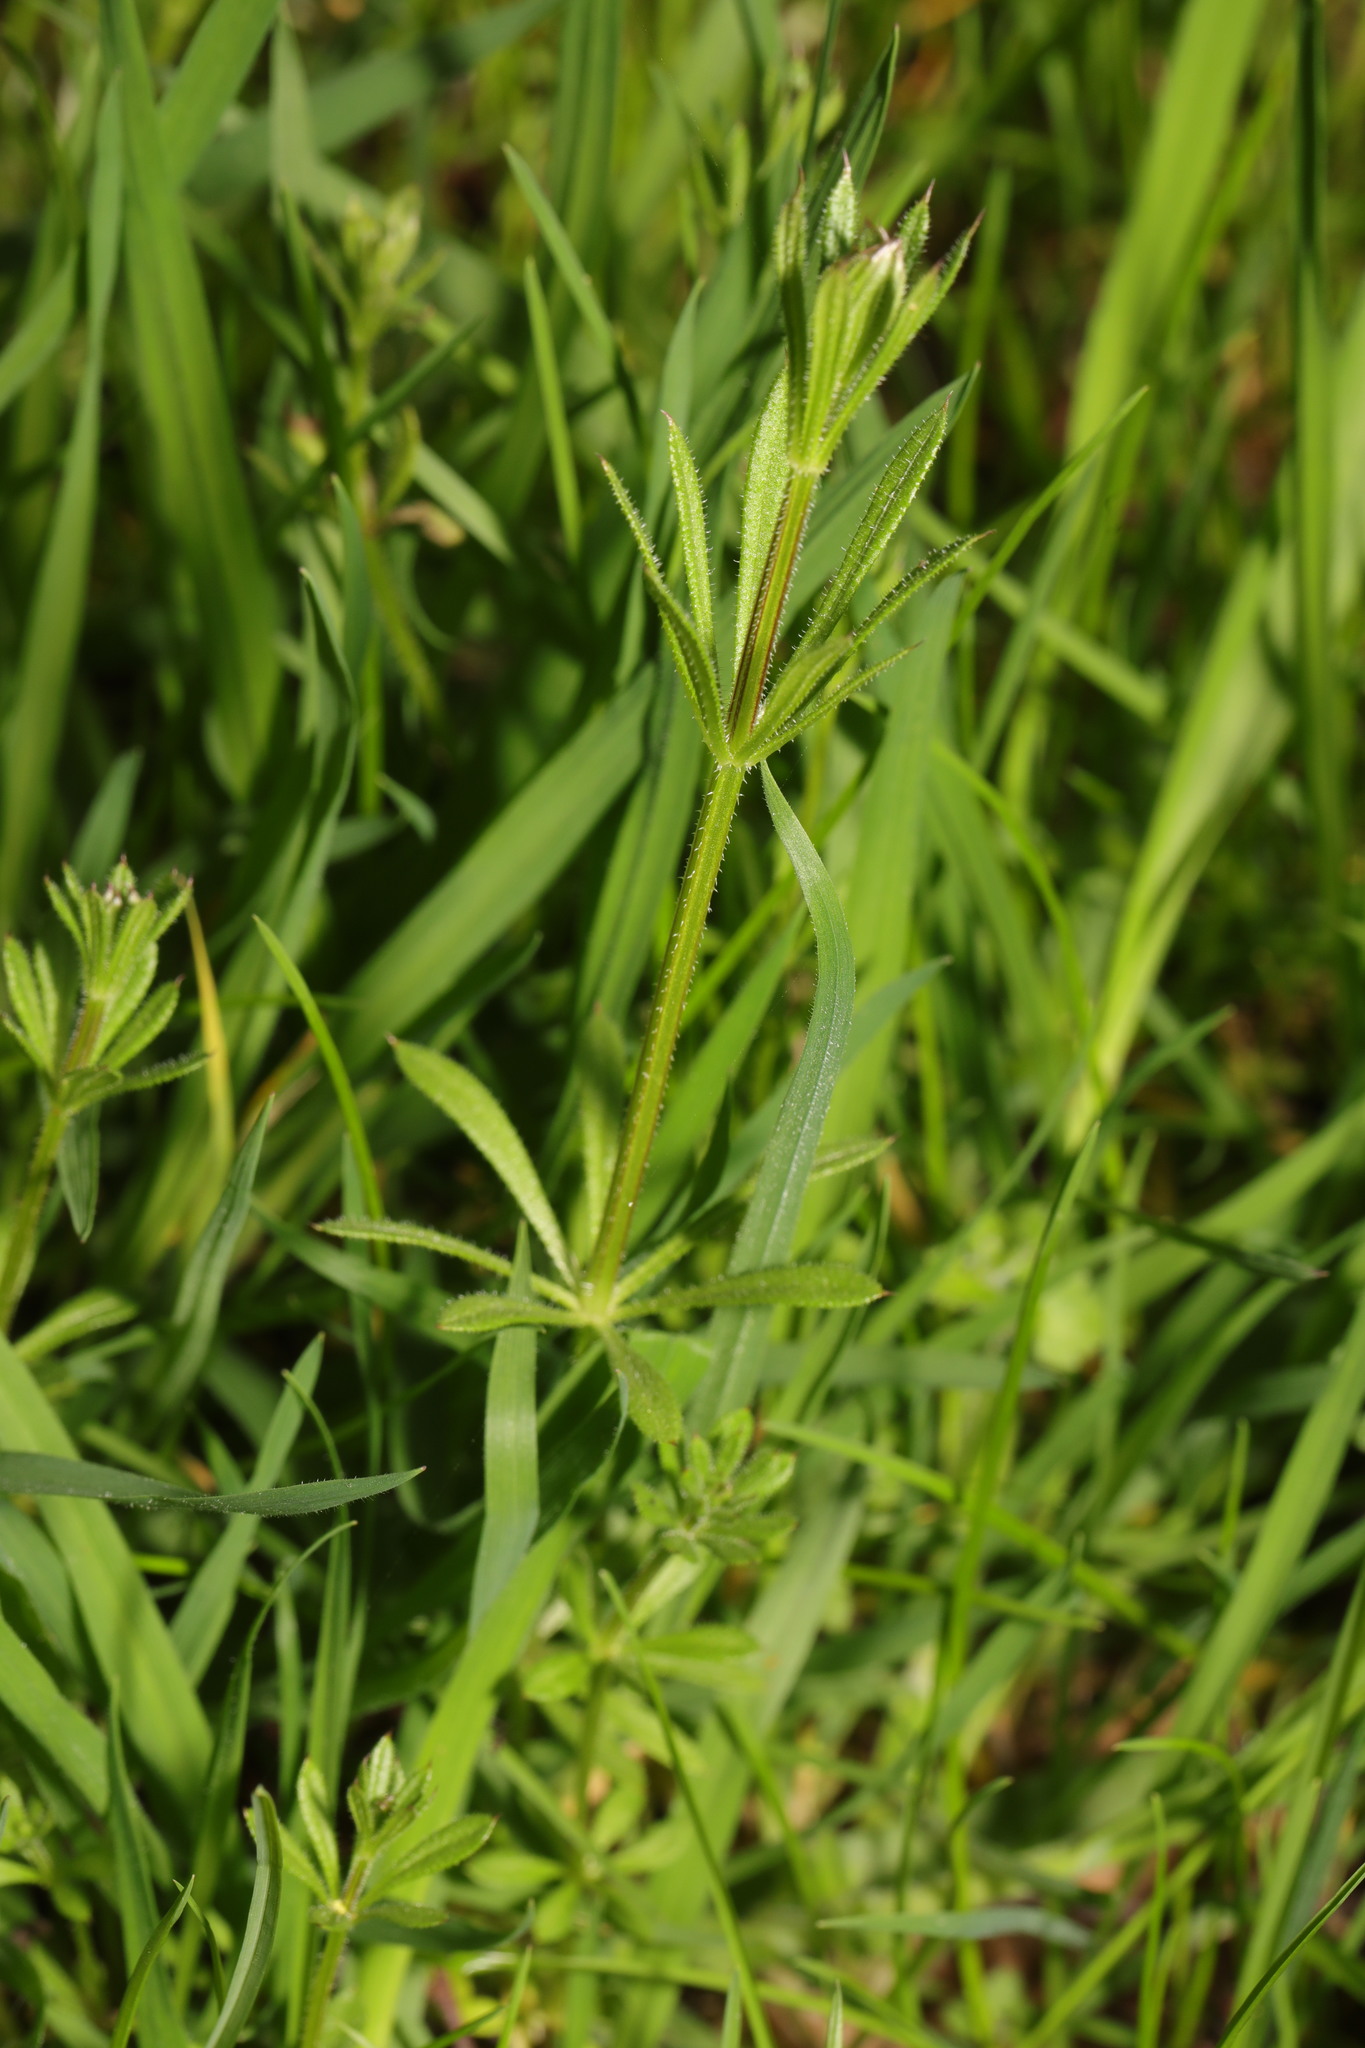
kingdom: Plantae
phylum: Tracheophyta
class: Magnoliopsida
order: Gentianales
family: Rubiaceae
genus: Galium
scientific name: Galium aparine
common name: Cleavers
